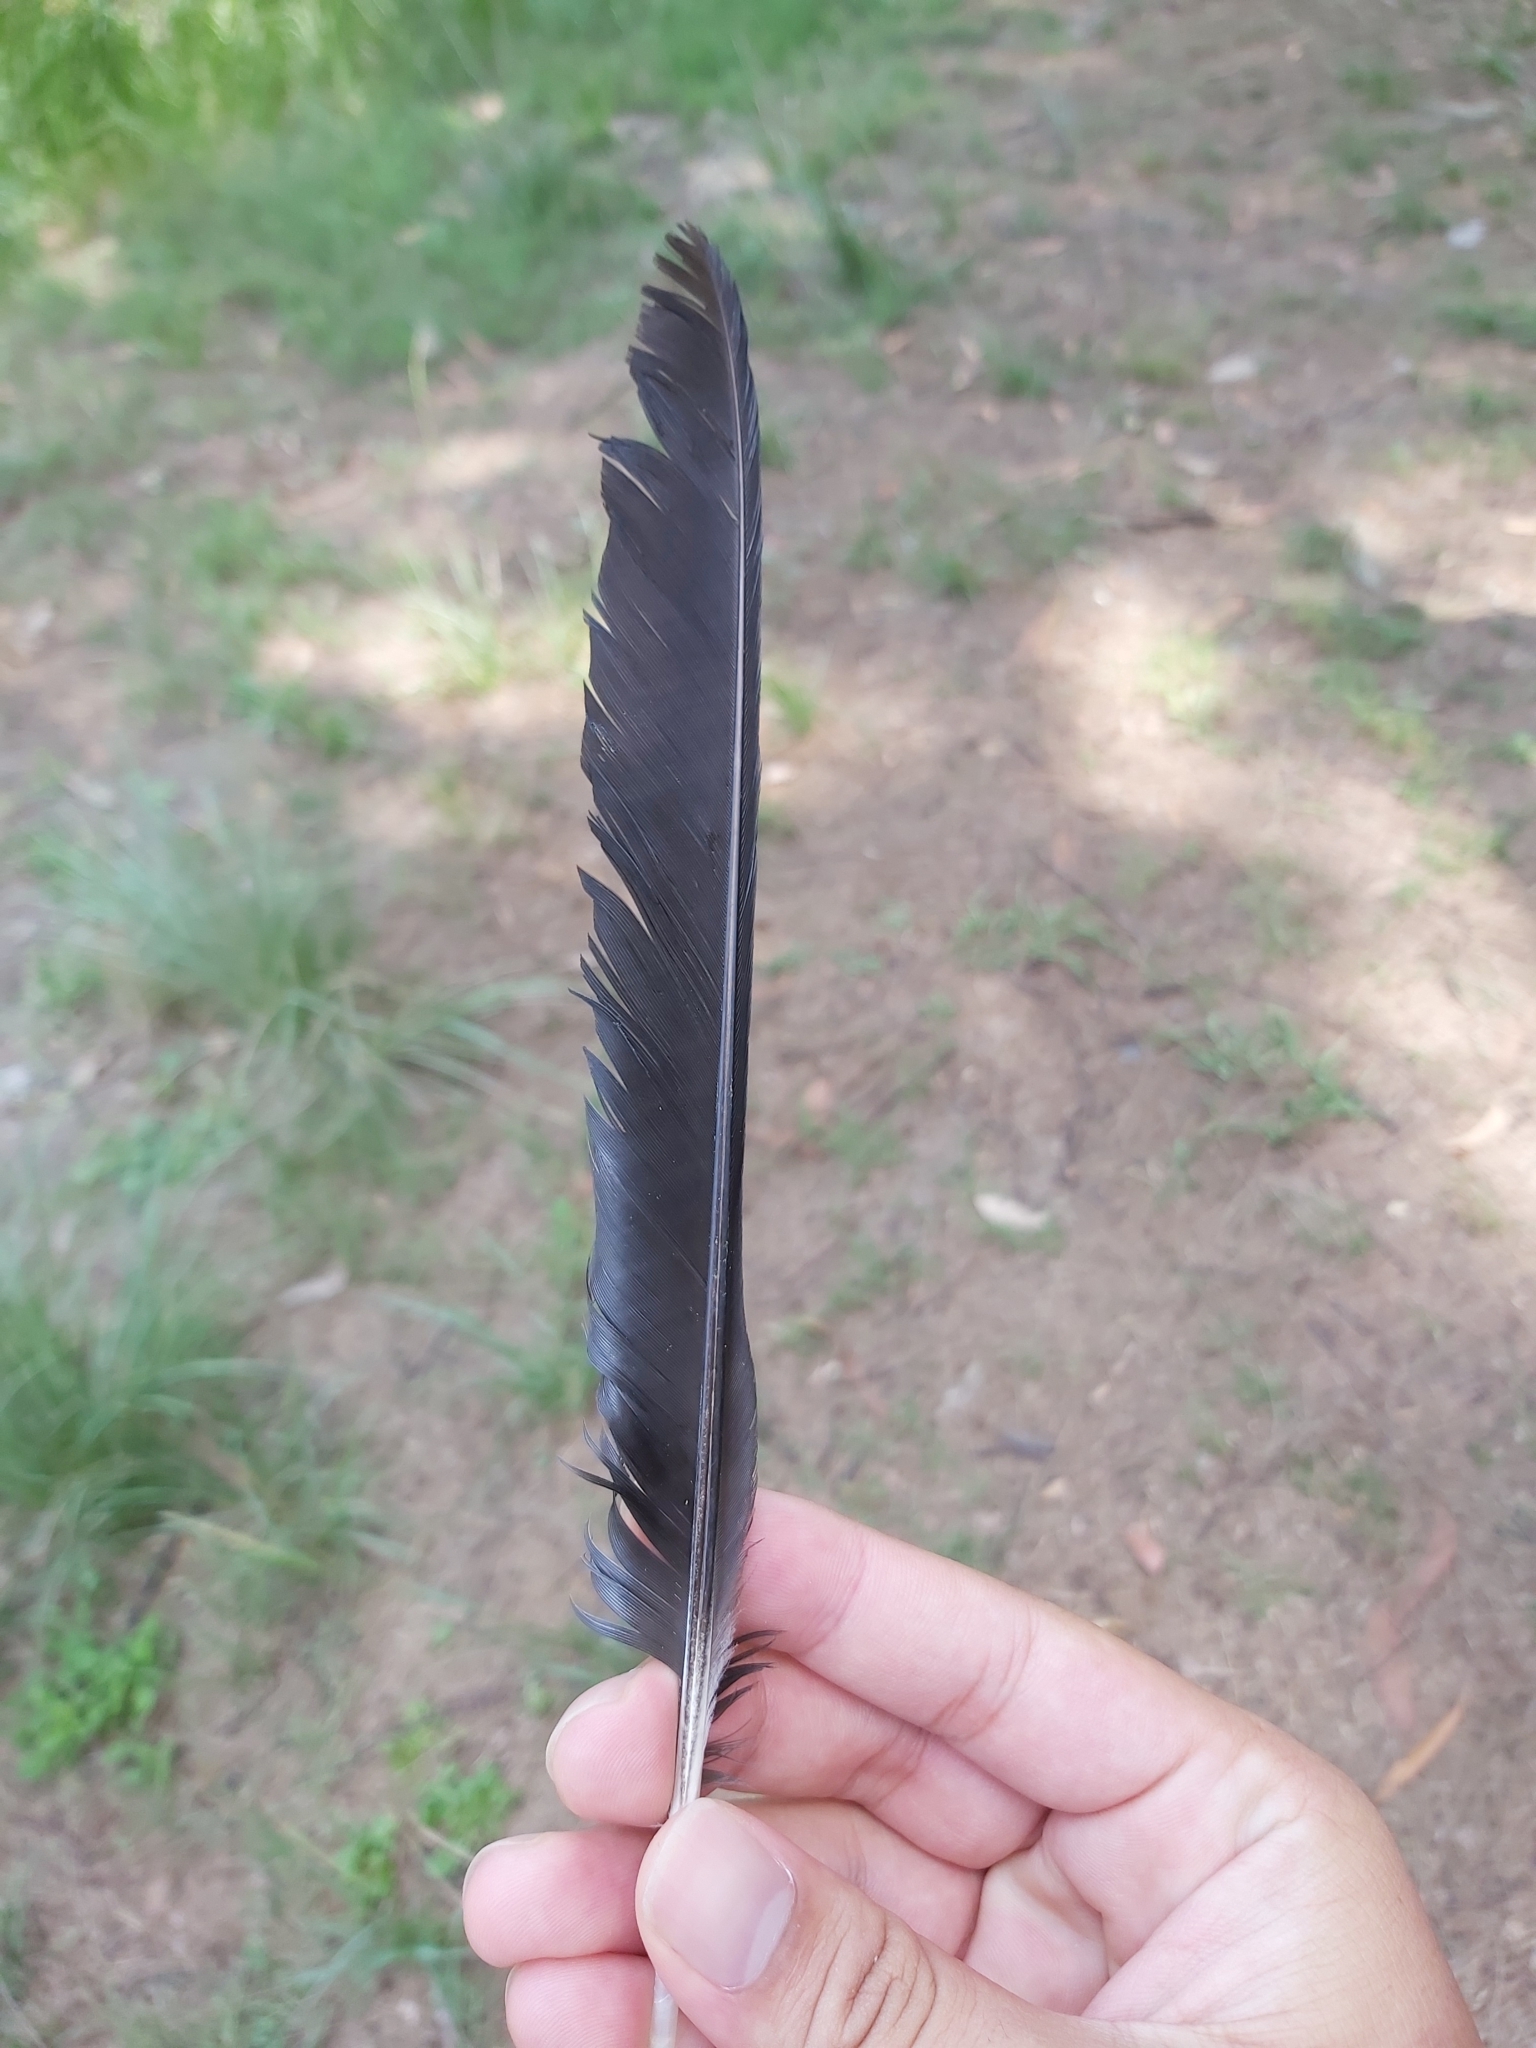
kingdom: Animalia
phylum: Chordata
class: Aves
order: Passeriformes
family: Cracticidae
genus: Gymnorhina
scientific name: Gymnorhina tibicen
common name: Australian magpie
